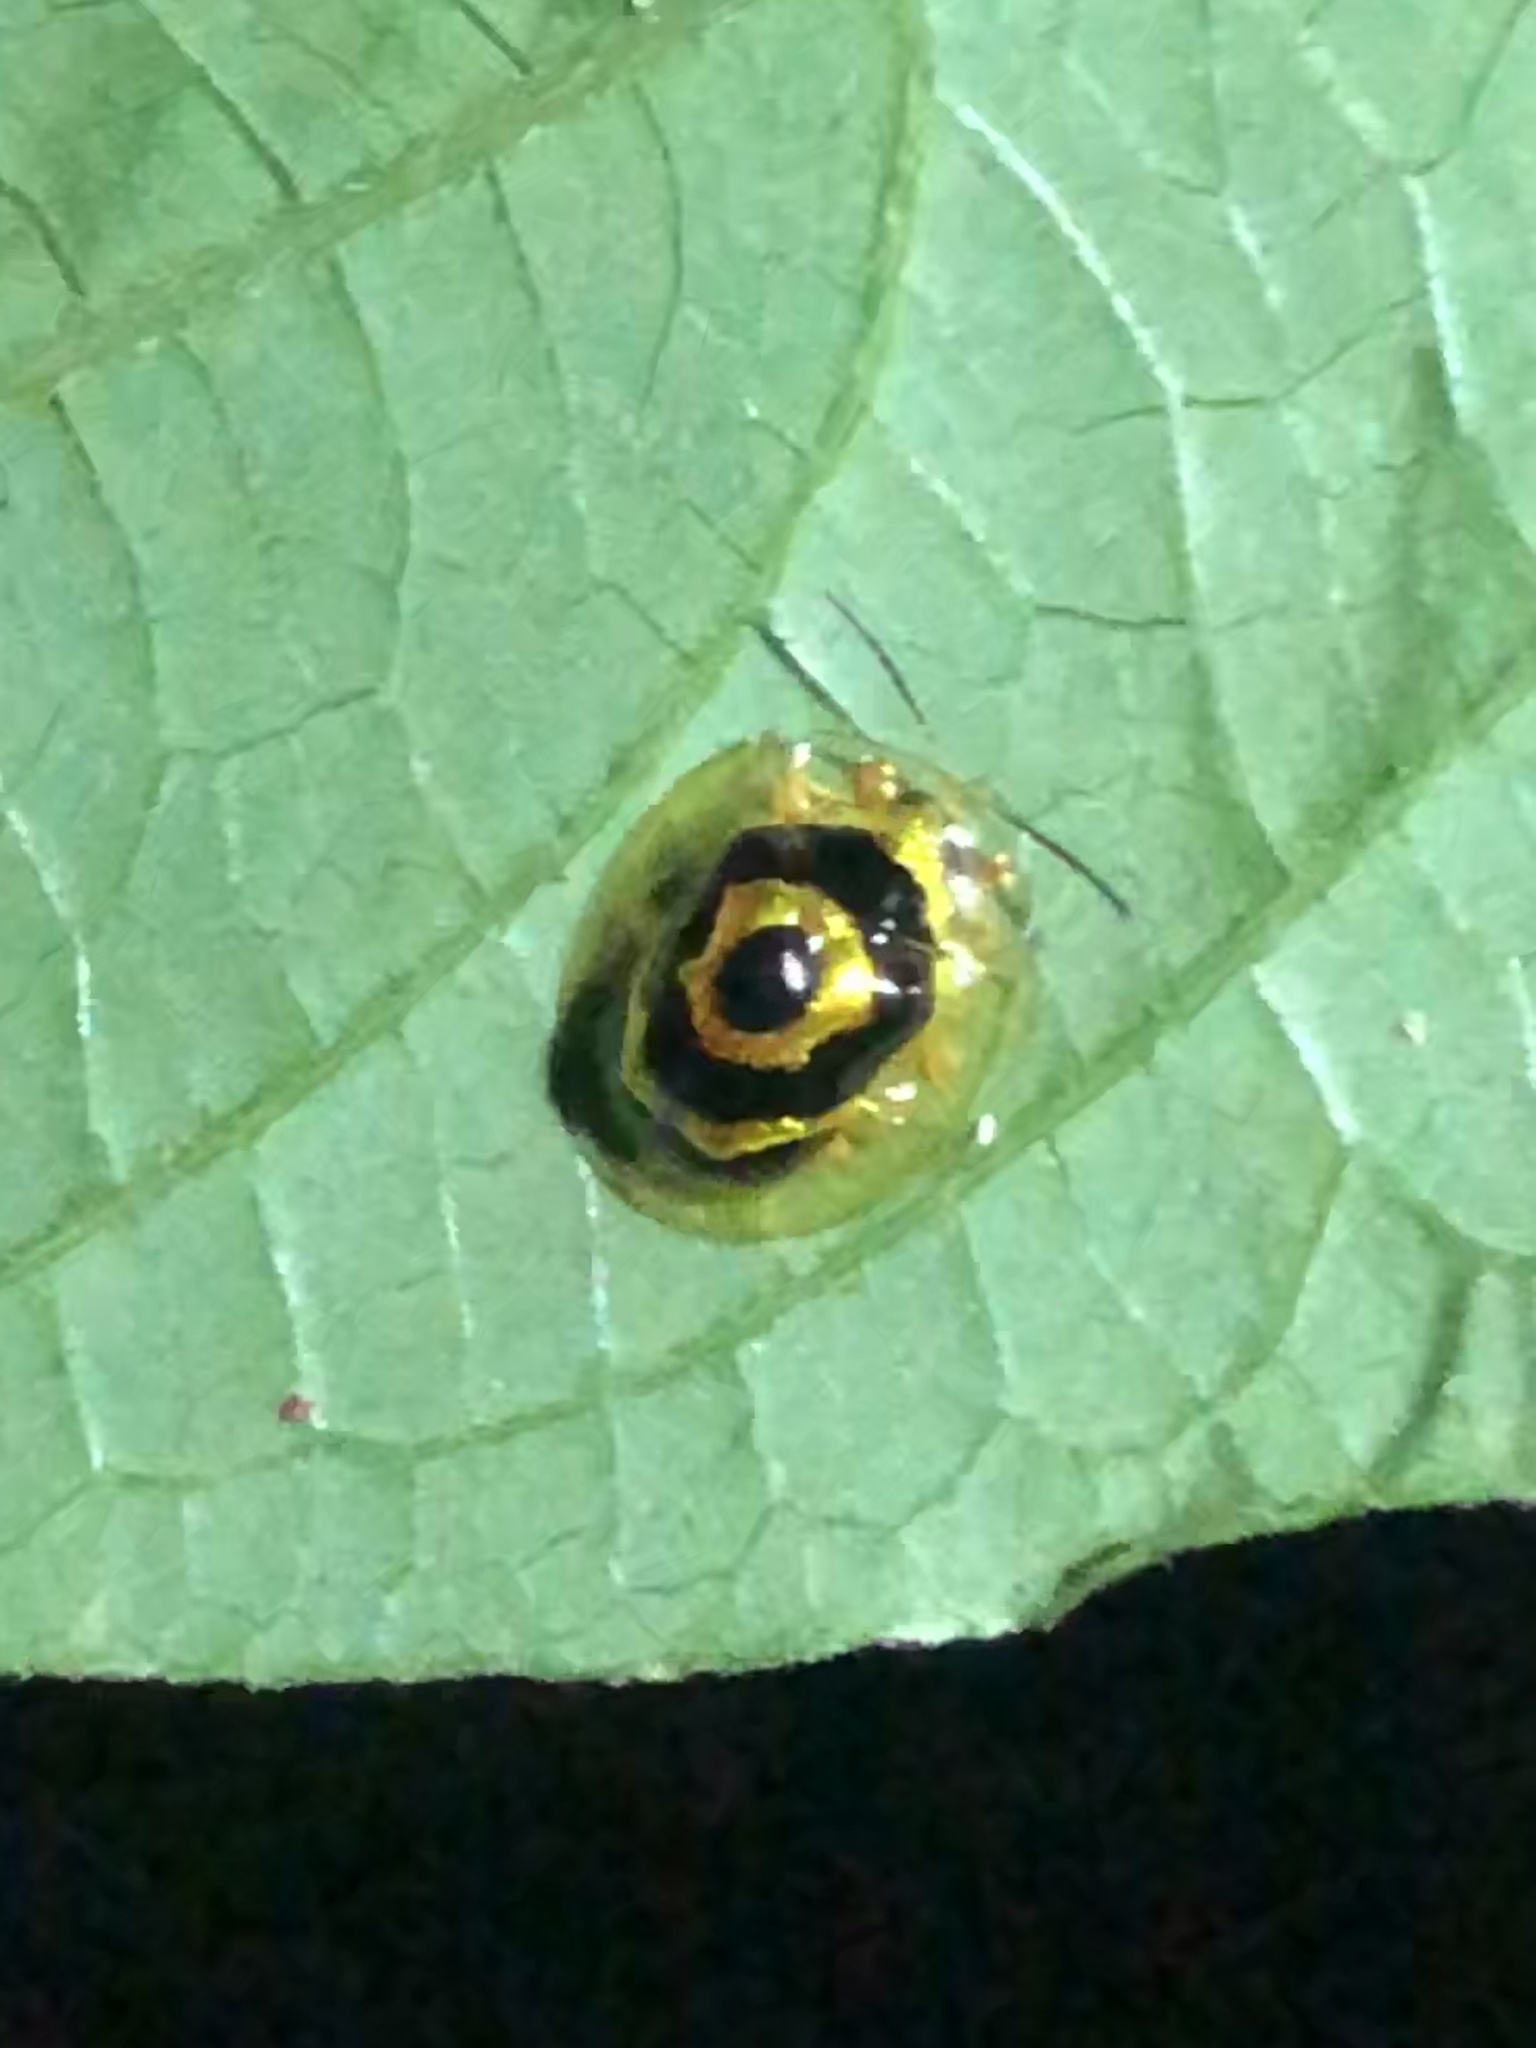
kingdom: Animalia
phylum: Arthropoda
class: Insecta
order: Coleoptera
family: Chrysomelidae
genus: Ischnocodia
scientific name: Ischnocodia annulus
